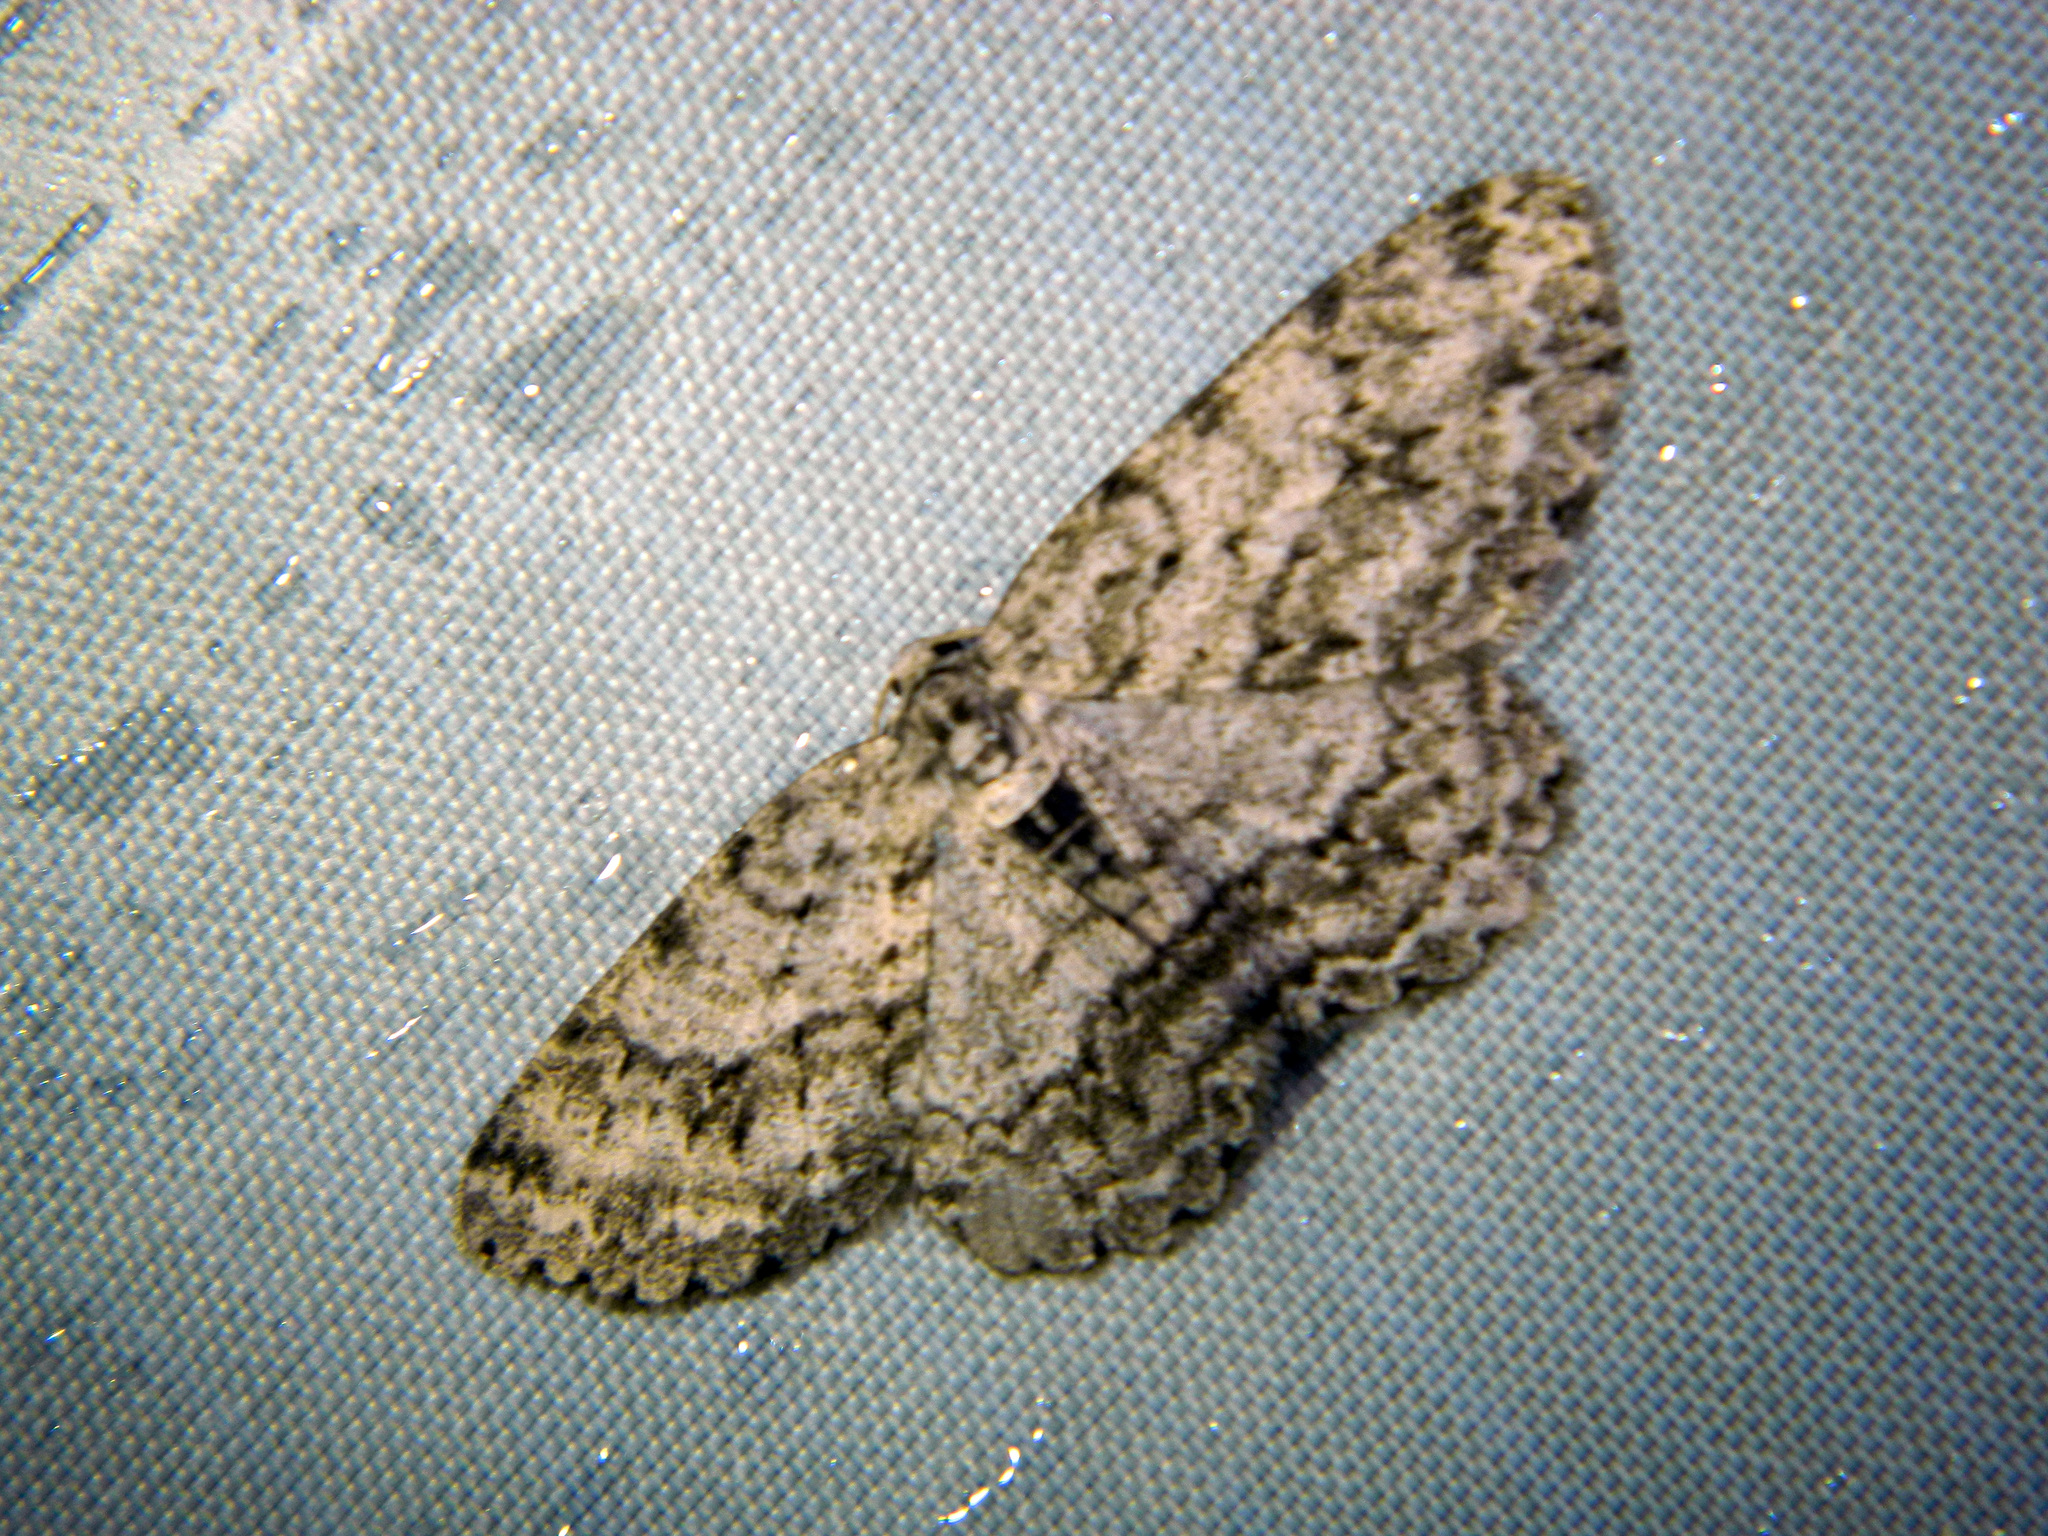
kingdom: Animalia
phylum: Arthropoda
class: Insecta
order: Lepidoptera
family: Geometridae
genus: Ectropis
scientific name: Ectropis crepuscularia
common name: Engrailed
